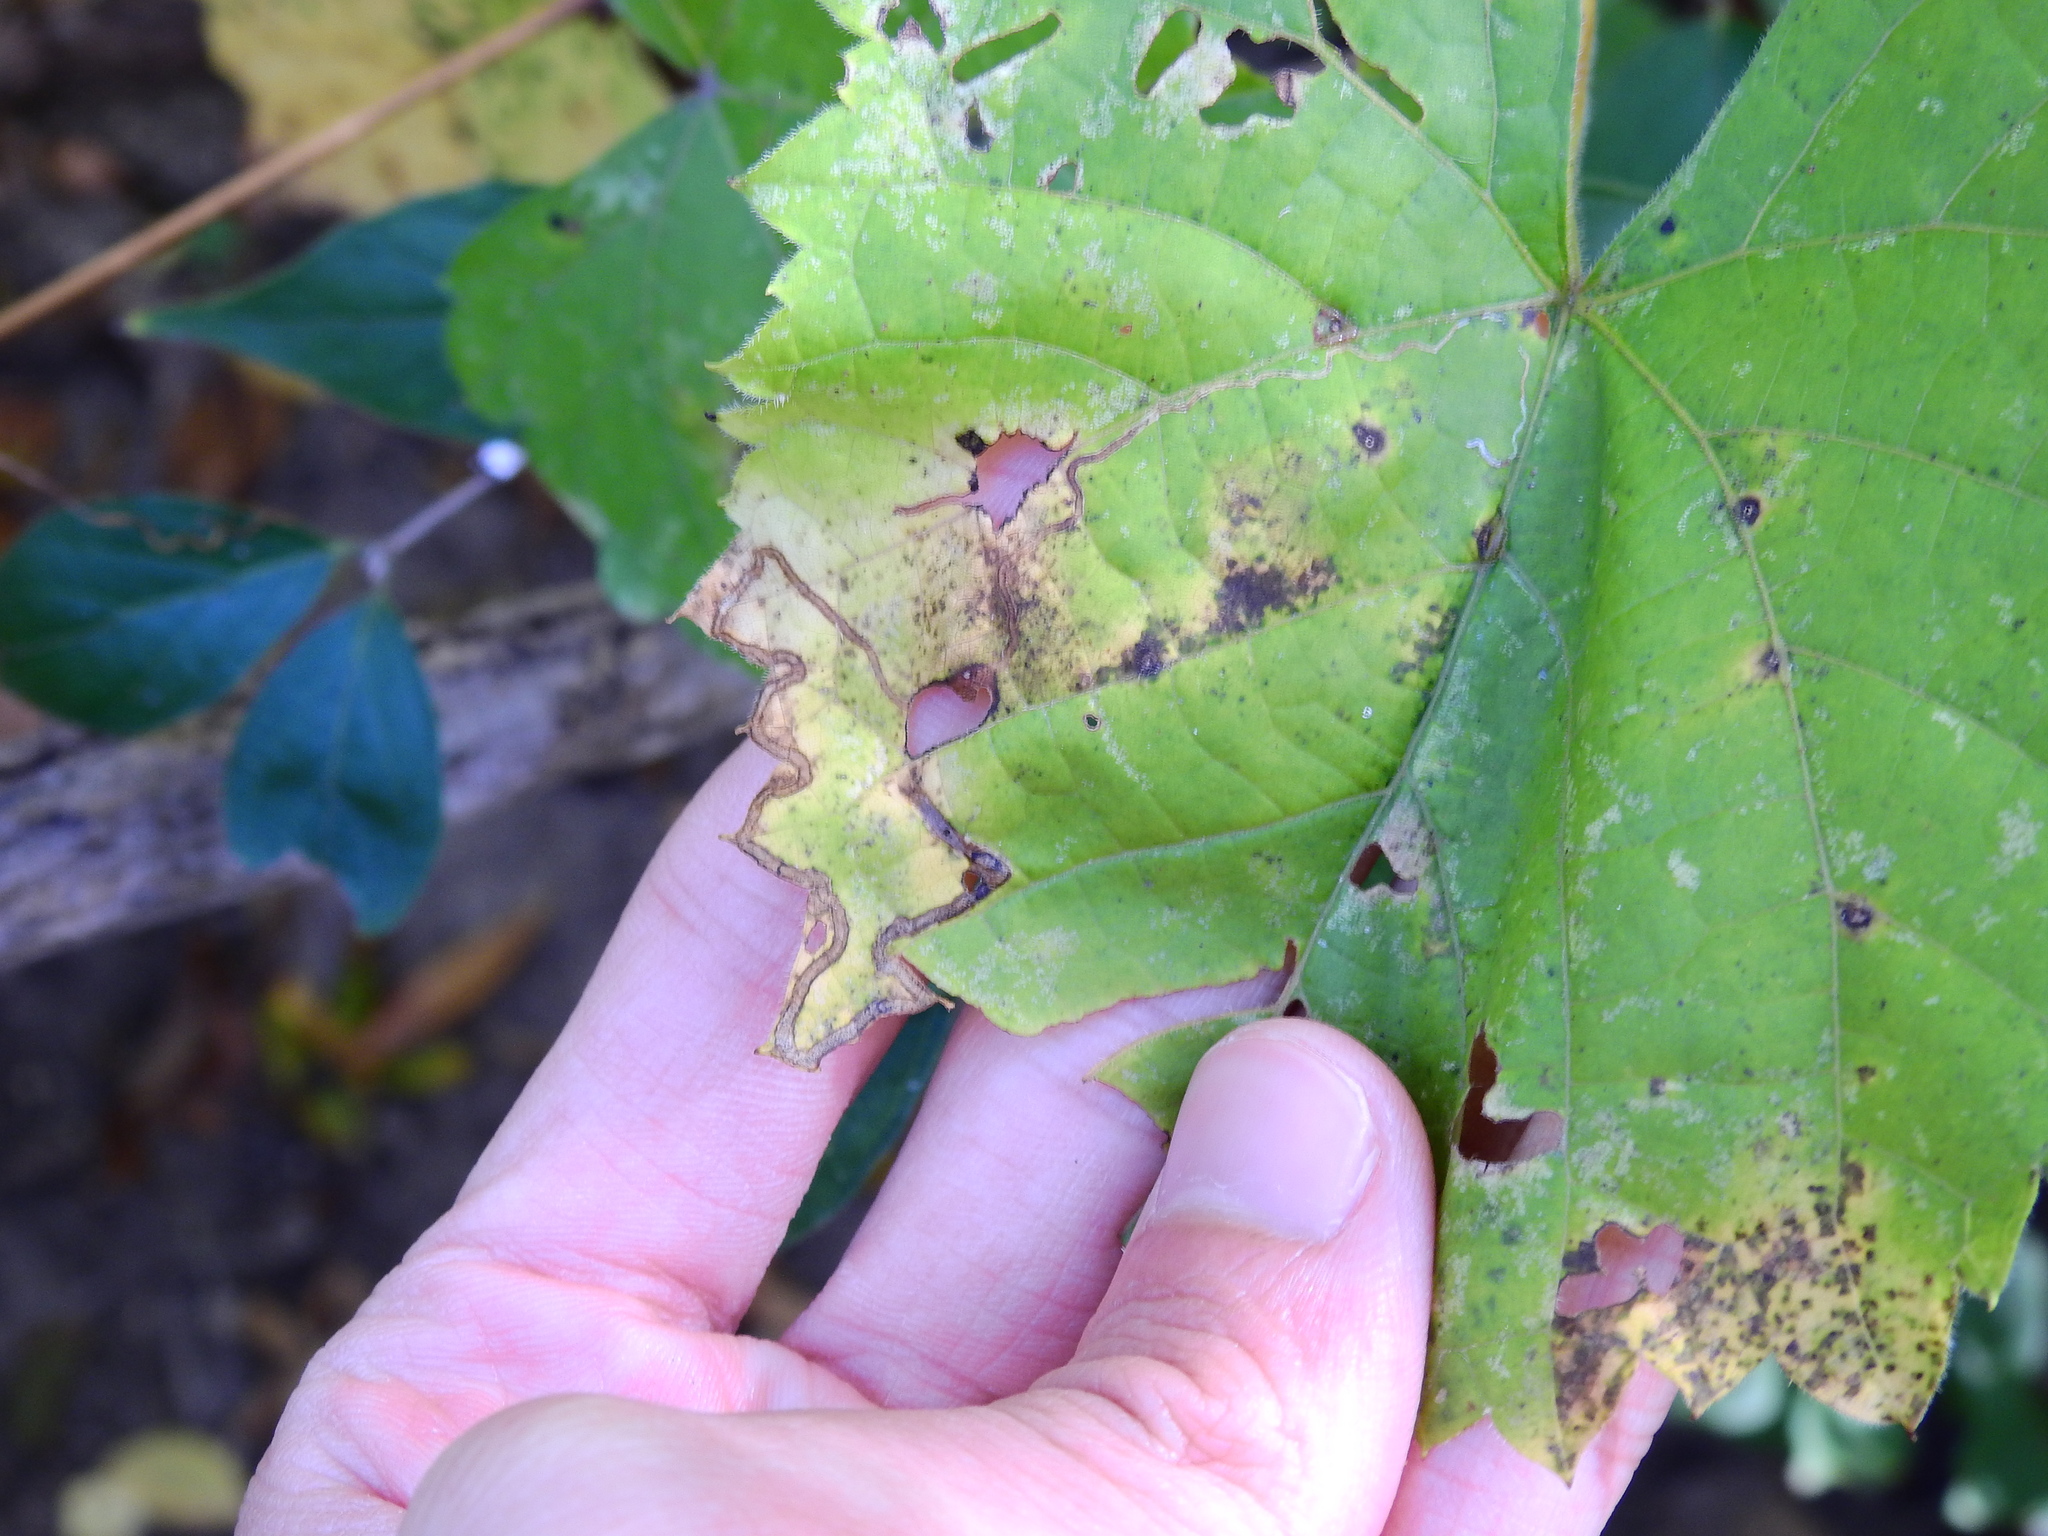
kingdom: Animalia
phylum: Arthropoda
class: Insecta
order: Lepidoptera
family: Gracillariidae
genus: Phyllocnistis
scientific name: Phyllocnistis vitifoliella
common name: Grape leaf-miner moth
